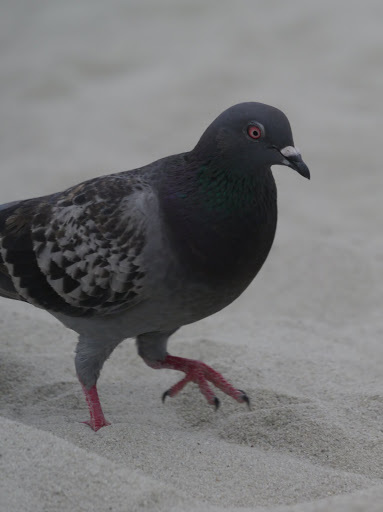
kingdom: Animalia
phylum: Chordata
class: Aves
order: Columbiformes
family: Columbidae
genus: Columba
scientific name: Columba livia
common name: Rock pigeon
